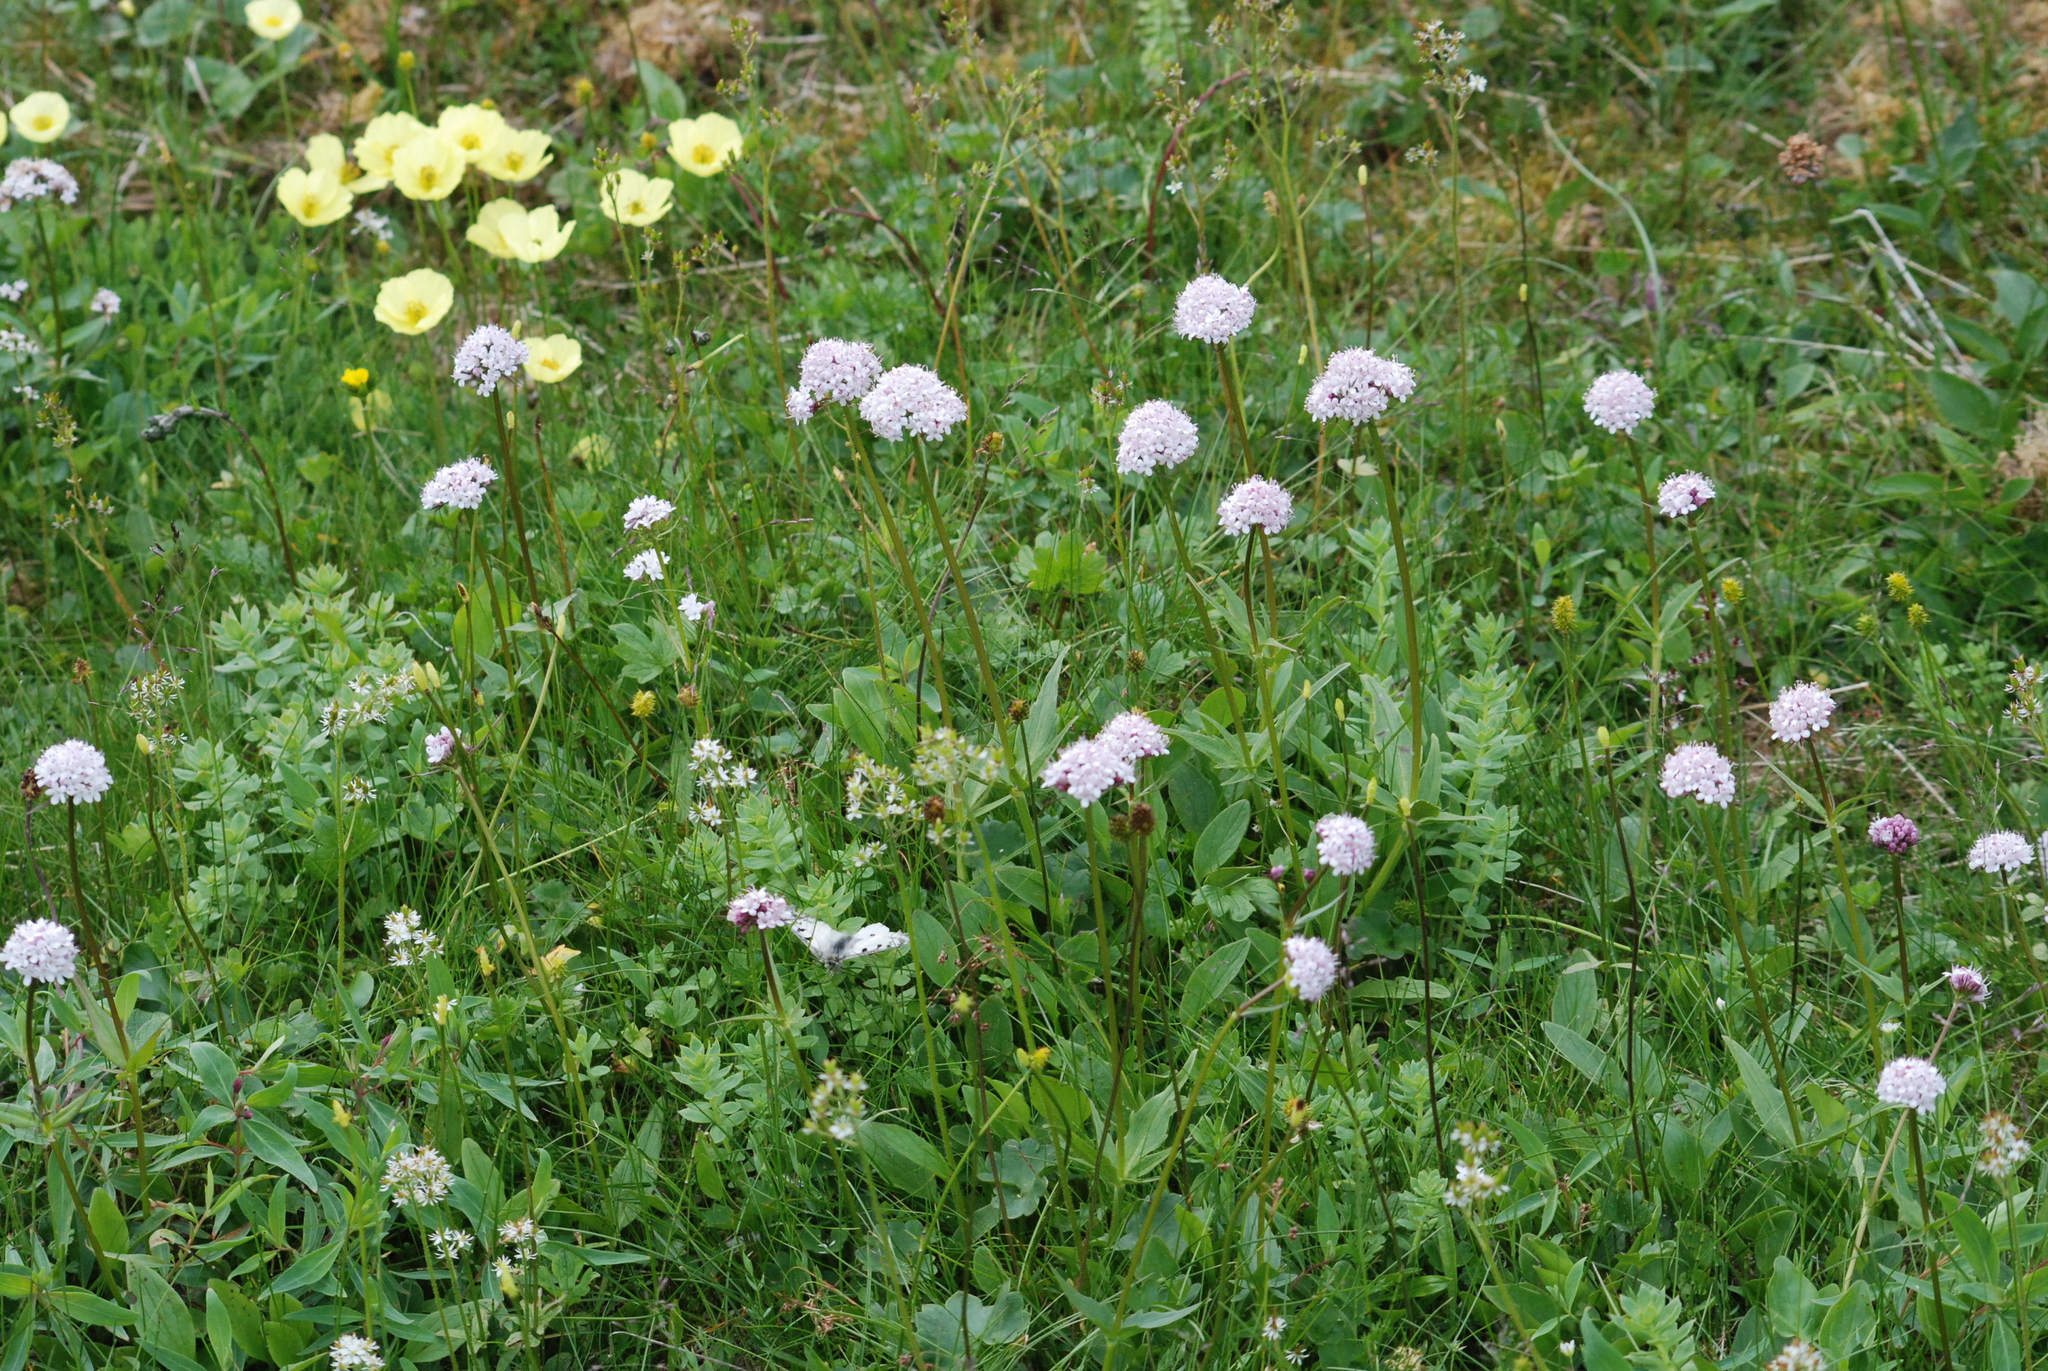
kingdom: Plantae
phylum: Tracheophyta
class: Magnoliopsida
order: Dipsacales
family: Caprifoliaceae
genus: Valeriana
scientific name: Valeriana capitata
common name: Capitate valerian
